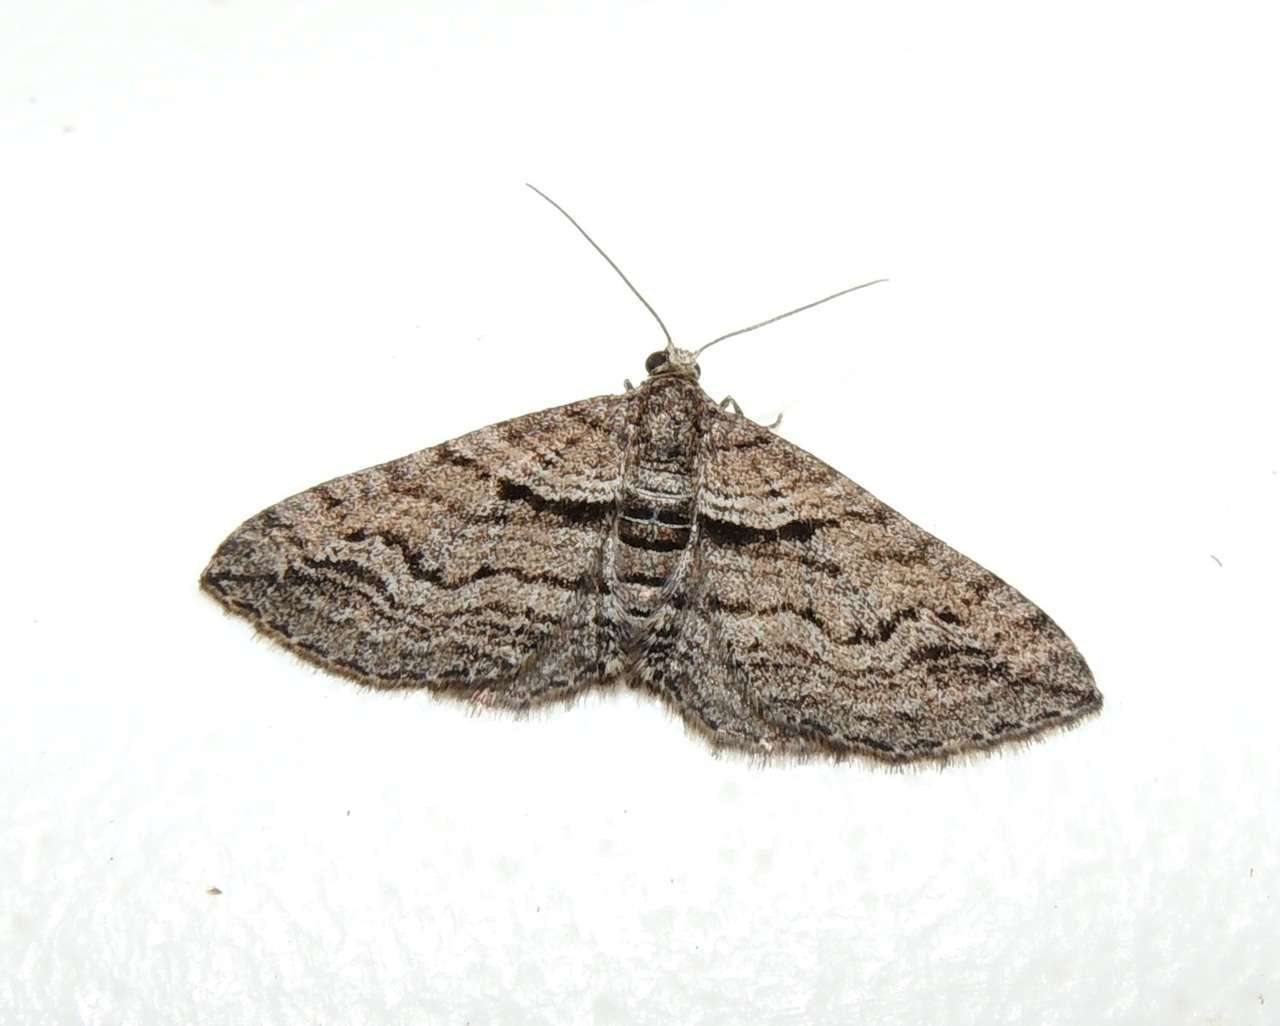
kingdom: Animalia
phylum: Arthropoda
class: Insecta
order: Lepidoptera
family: Geometridae
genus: Hypycnopa
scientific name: Hypycnopa delotis
